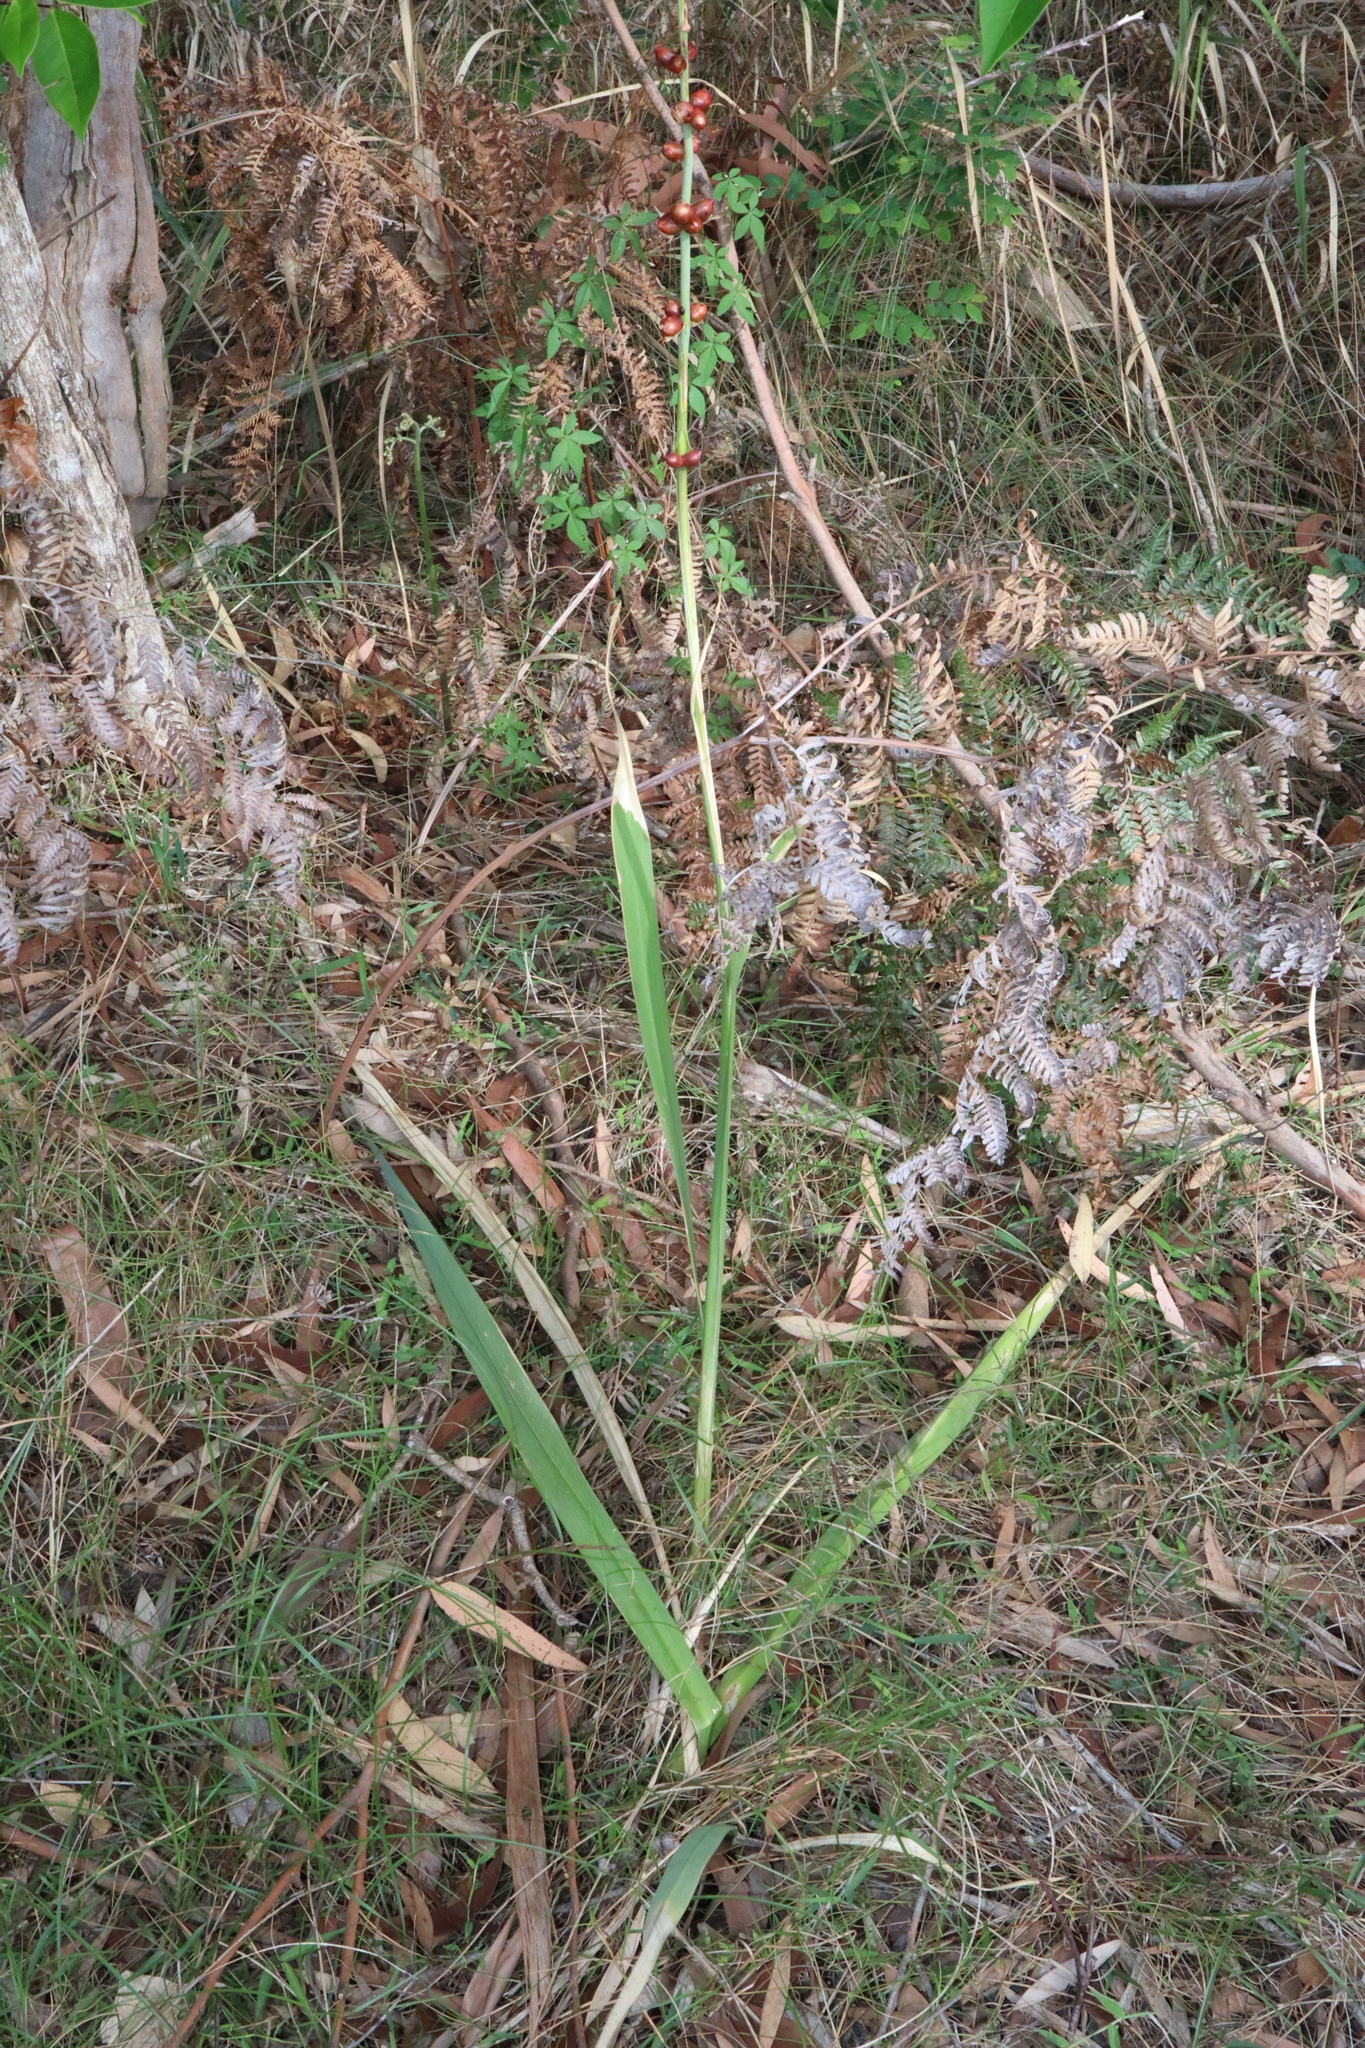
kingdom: Plantae
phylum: Tracheophyta
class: Liliopsida
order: Asparagales
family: Iridaceae
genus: Watsonia
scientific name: Watsonia meriana
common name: Bulbil bugle-lily
